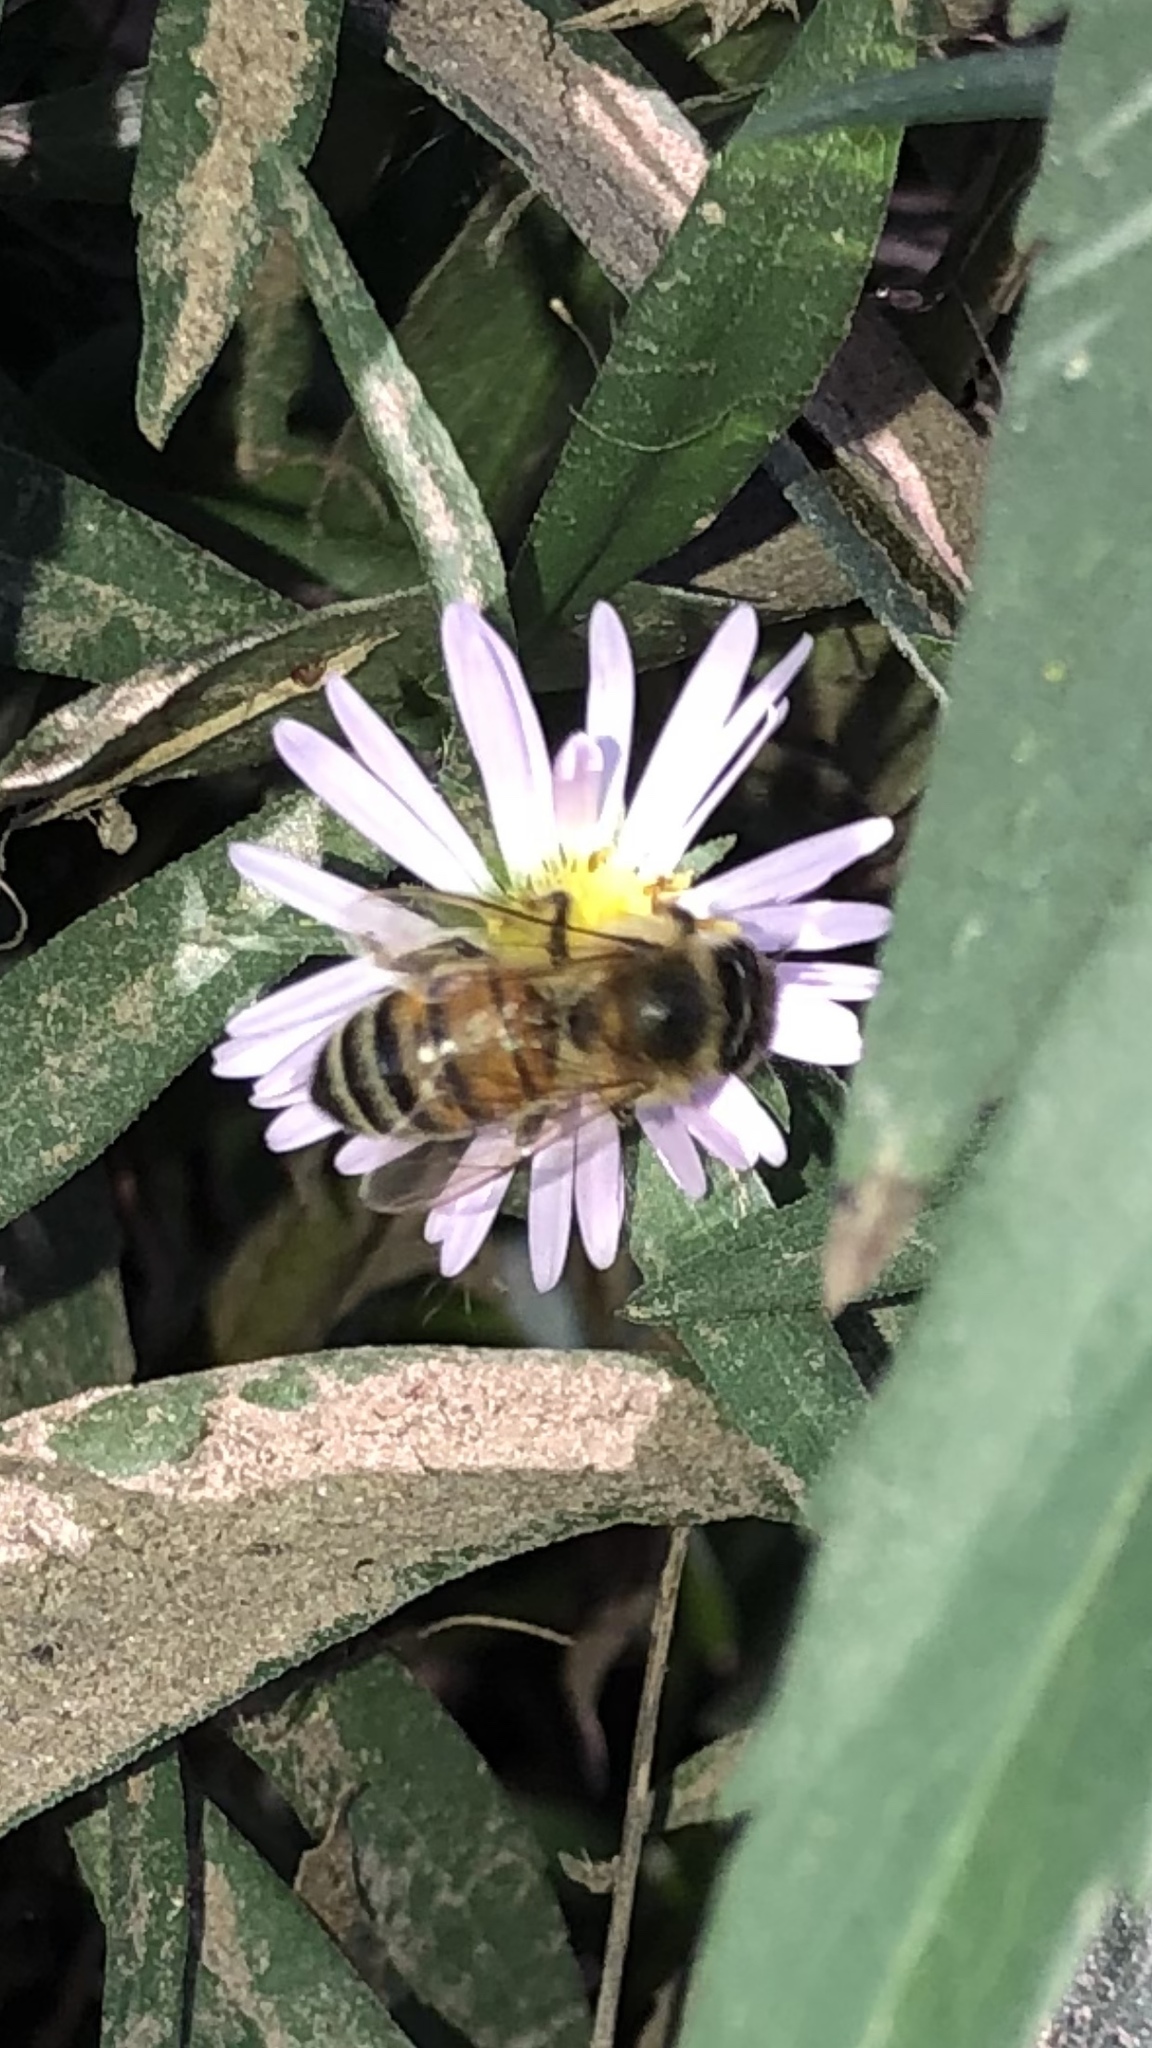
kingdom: Animalia
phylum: Arthropoda
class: Insecta
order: Hymenoptera
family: Apidae
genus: Apis
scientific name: Apis mellifera
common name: Honey bee
